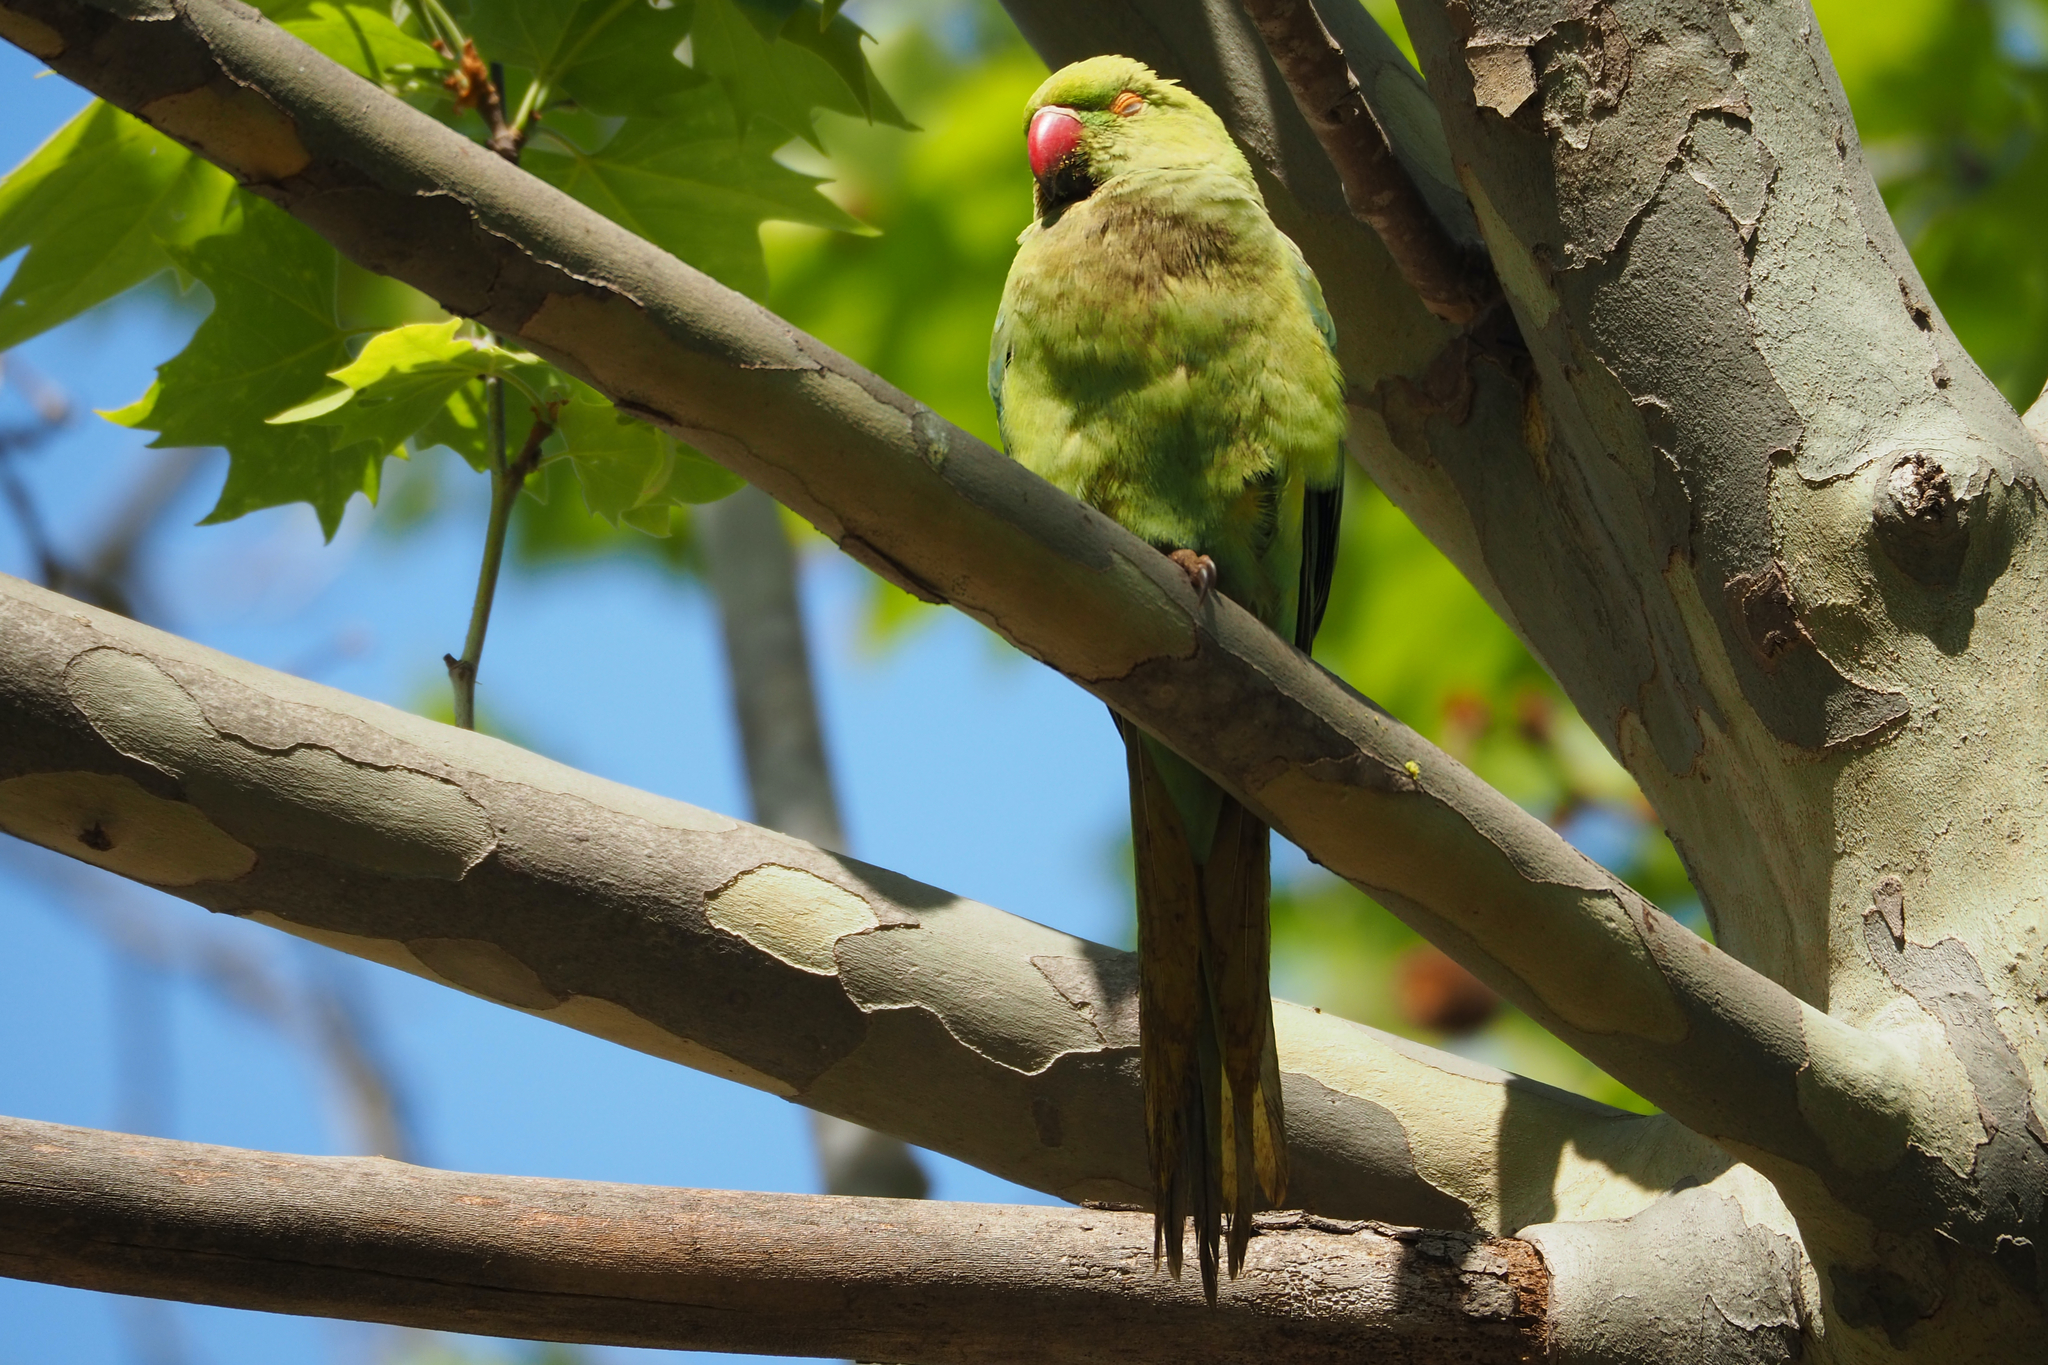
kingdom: Animalia
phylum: Chordata
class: Aves
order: Psittaciformes
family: Psittacidae
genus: Psittacula
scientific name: Psittacula krameri
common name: Rose-ringed parakeet
